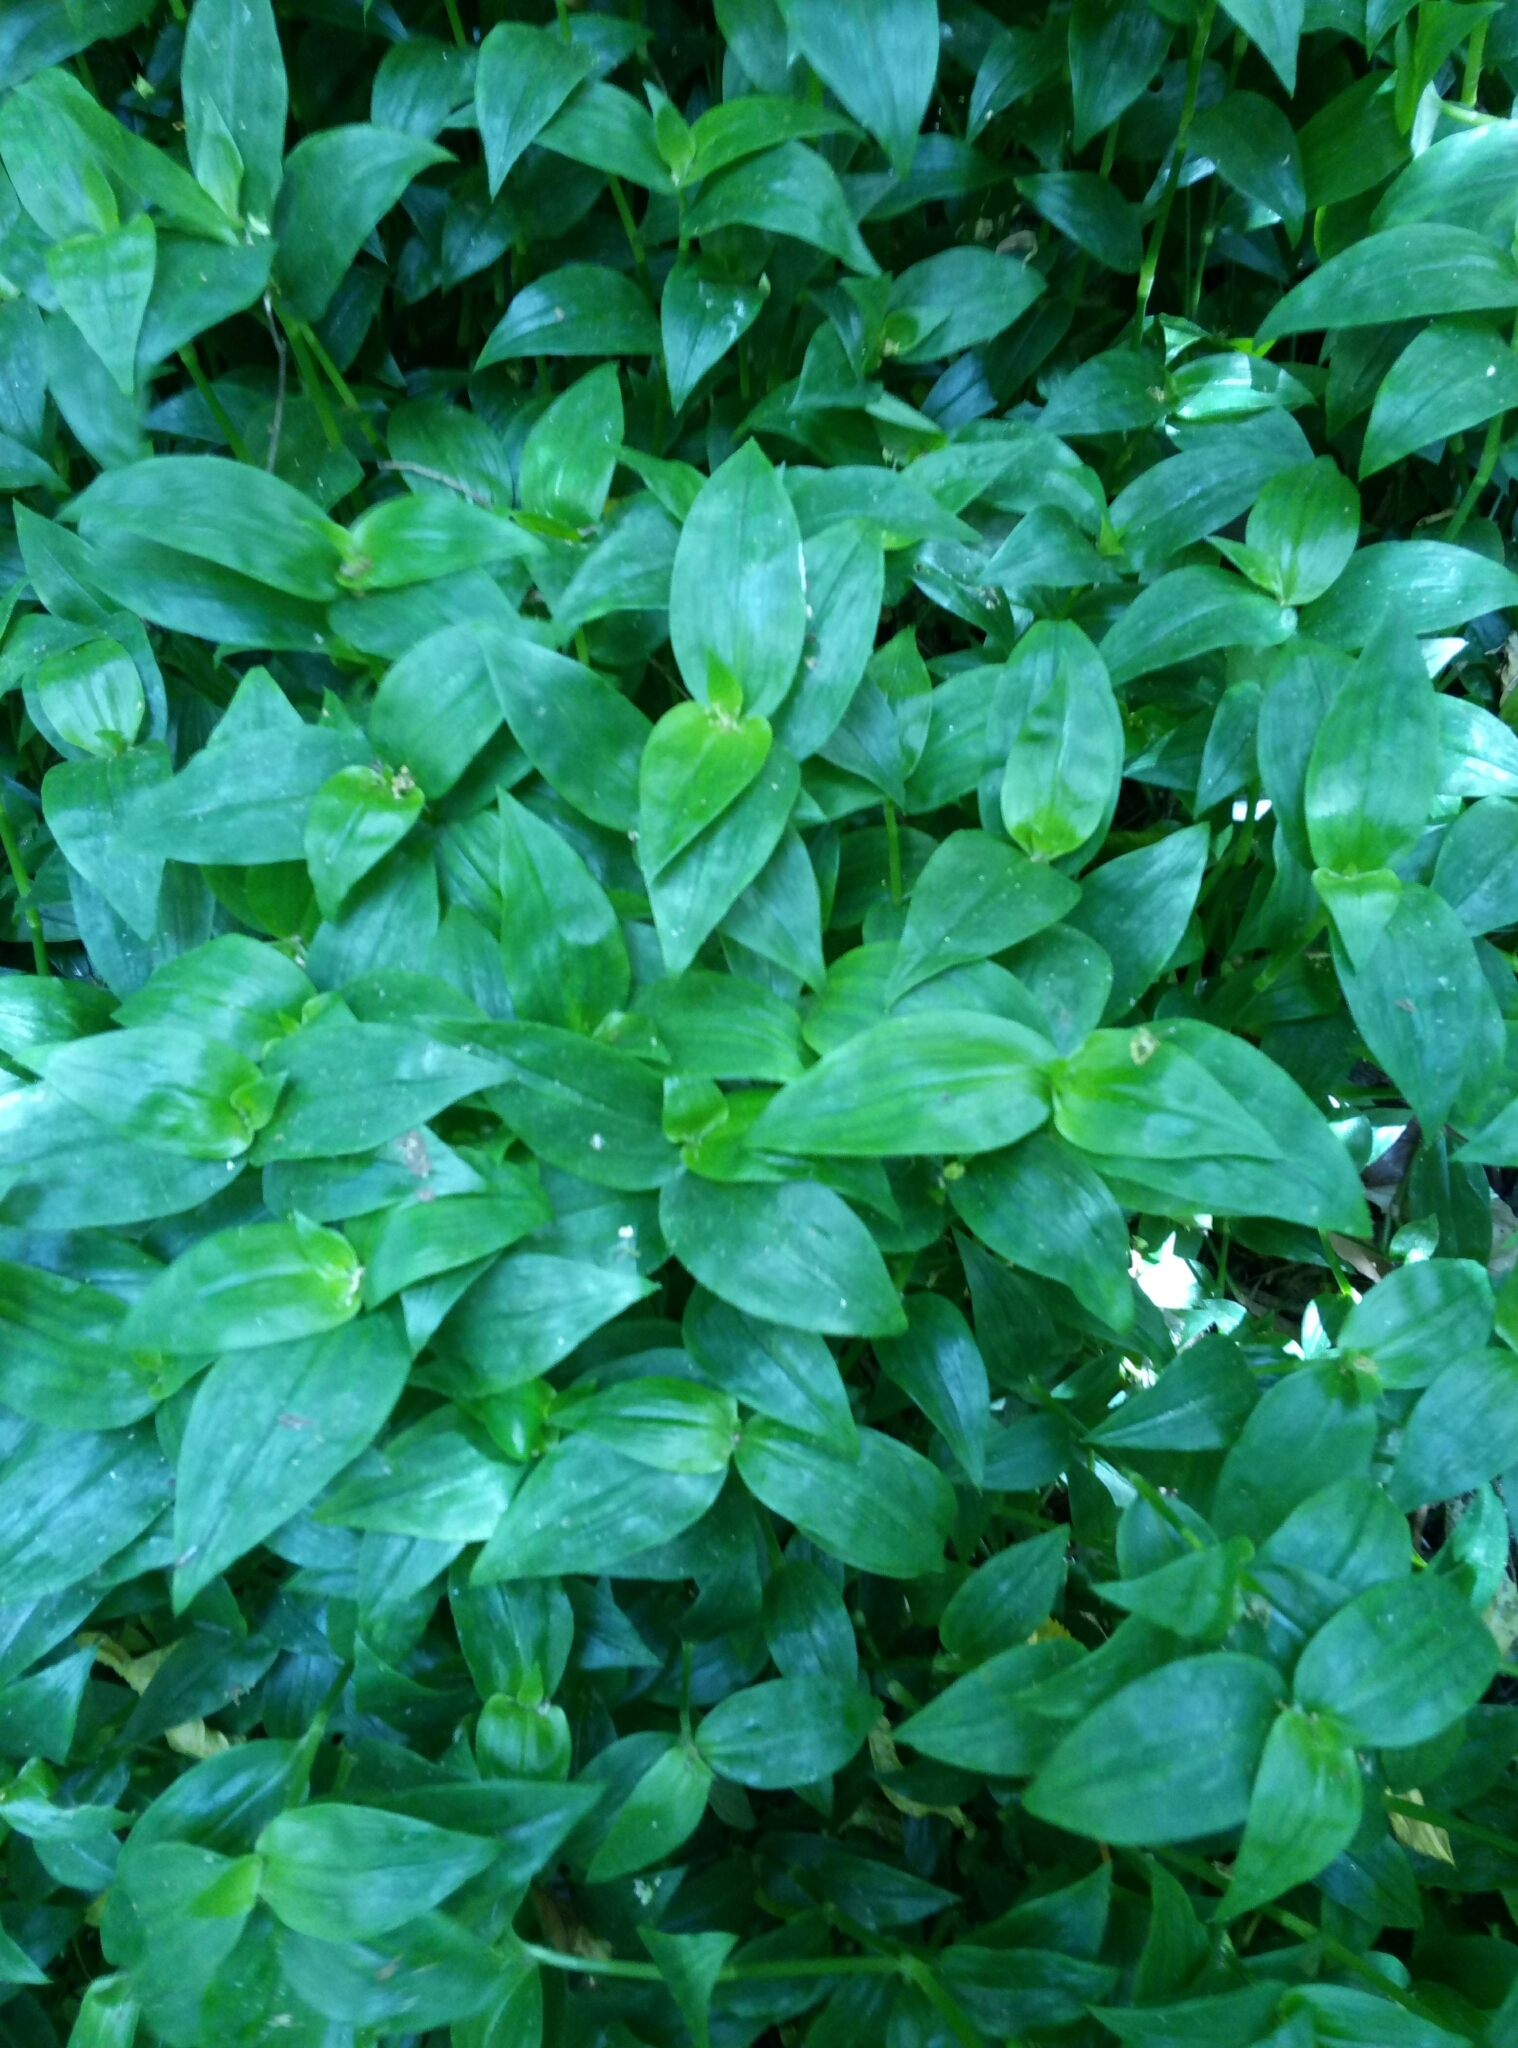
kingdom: Plantae
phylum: Tracheophyta
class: Liliopsida
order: Commelinales
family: Commelinaceae
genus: Tradescantia
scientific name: Tradescantia fluminensis
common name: Wandering-jew
